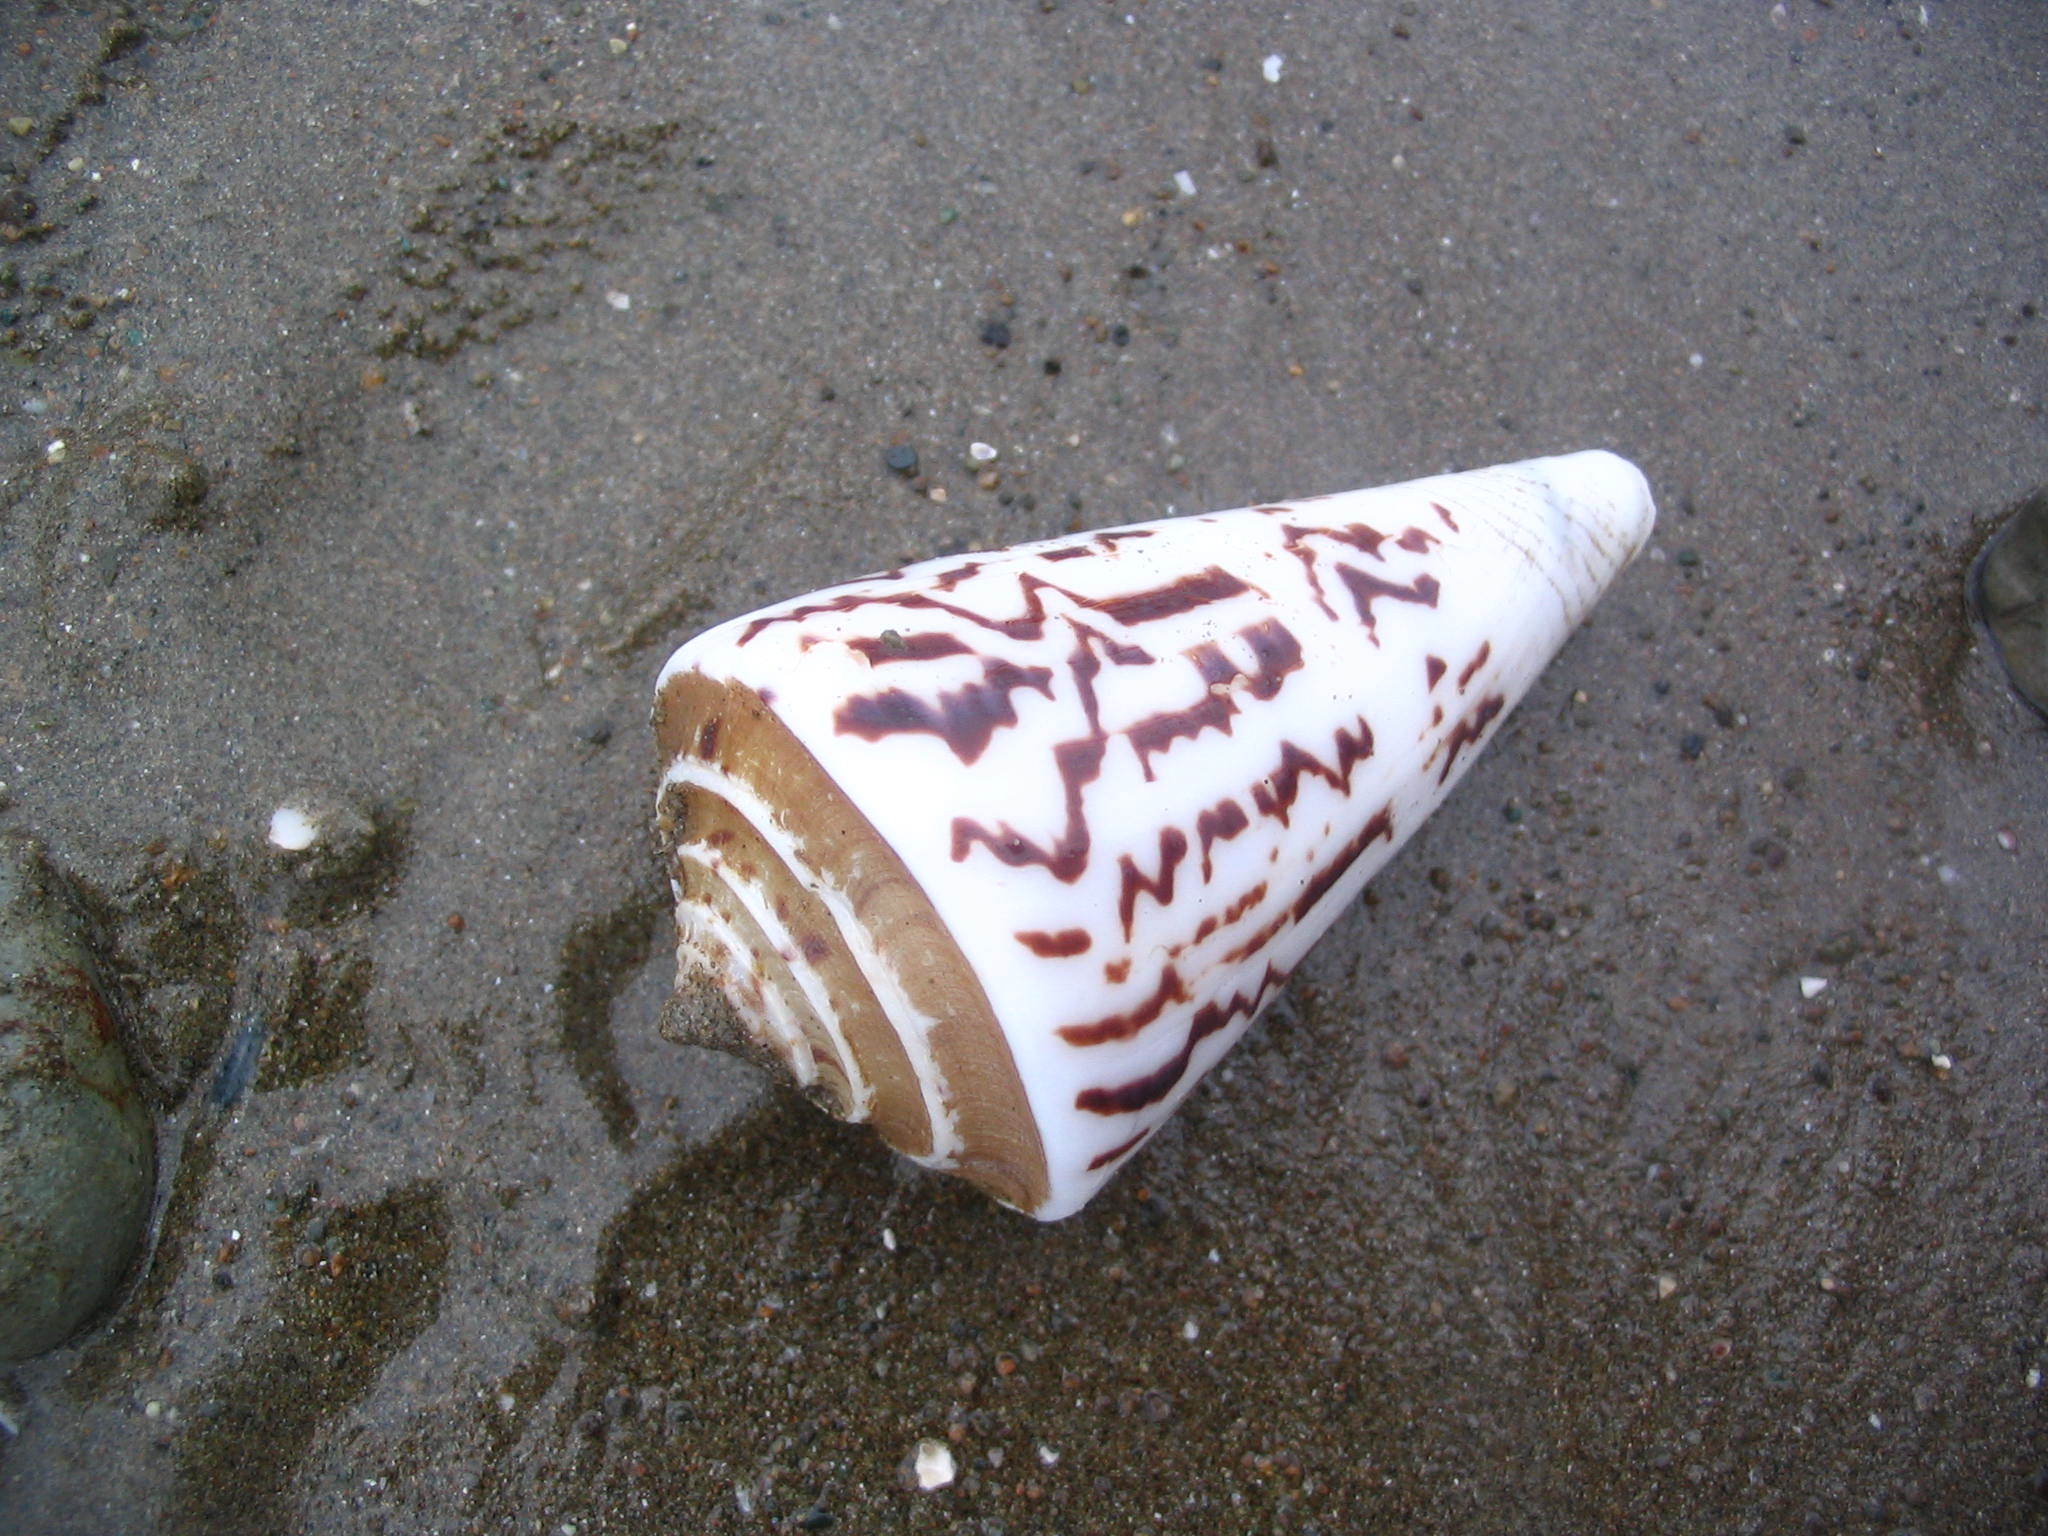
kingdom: Animalia
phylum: Mollusca
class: Gastropoda
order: Neogastropoda
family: Conidae
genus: Conasprella
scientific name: Conasprella emarginata
